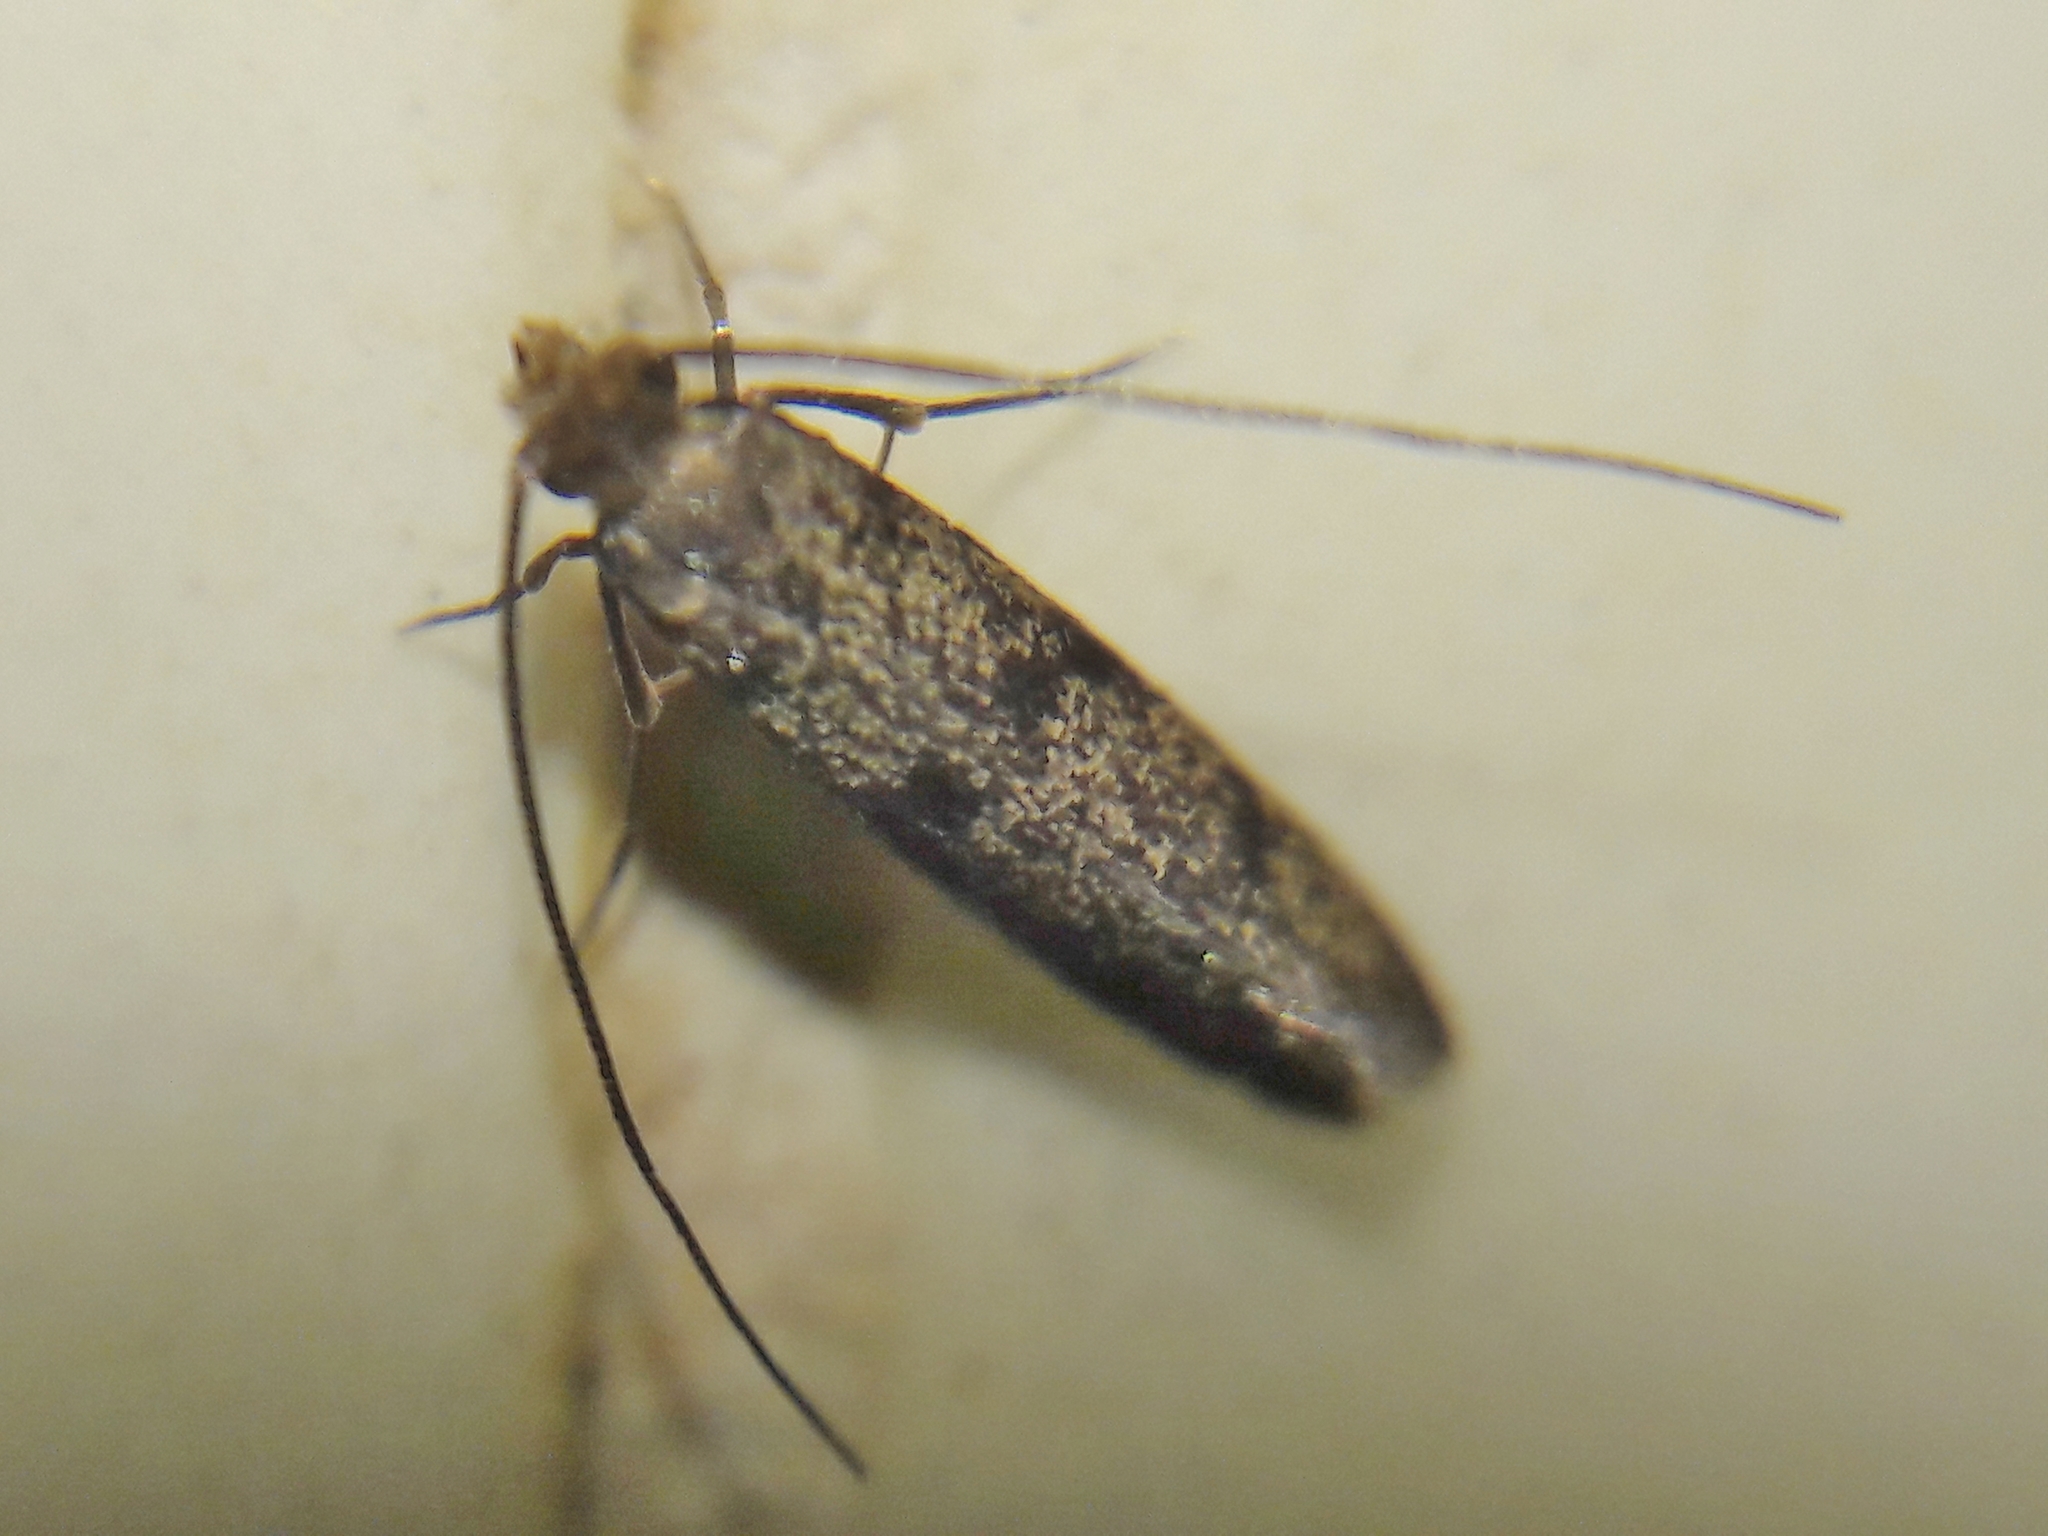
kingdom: Animalia
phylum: Arthropoda
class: Insecta
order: Lepidoptera
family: Tineidae
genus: Phereoeca
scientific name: Phereoeca uterella
